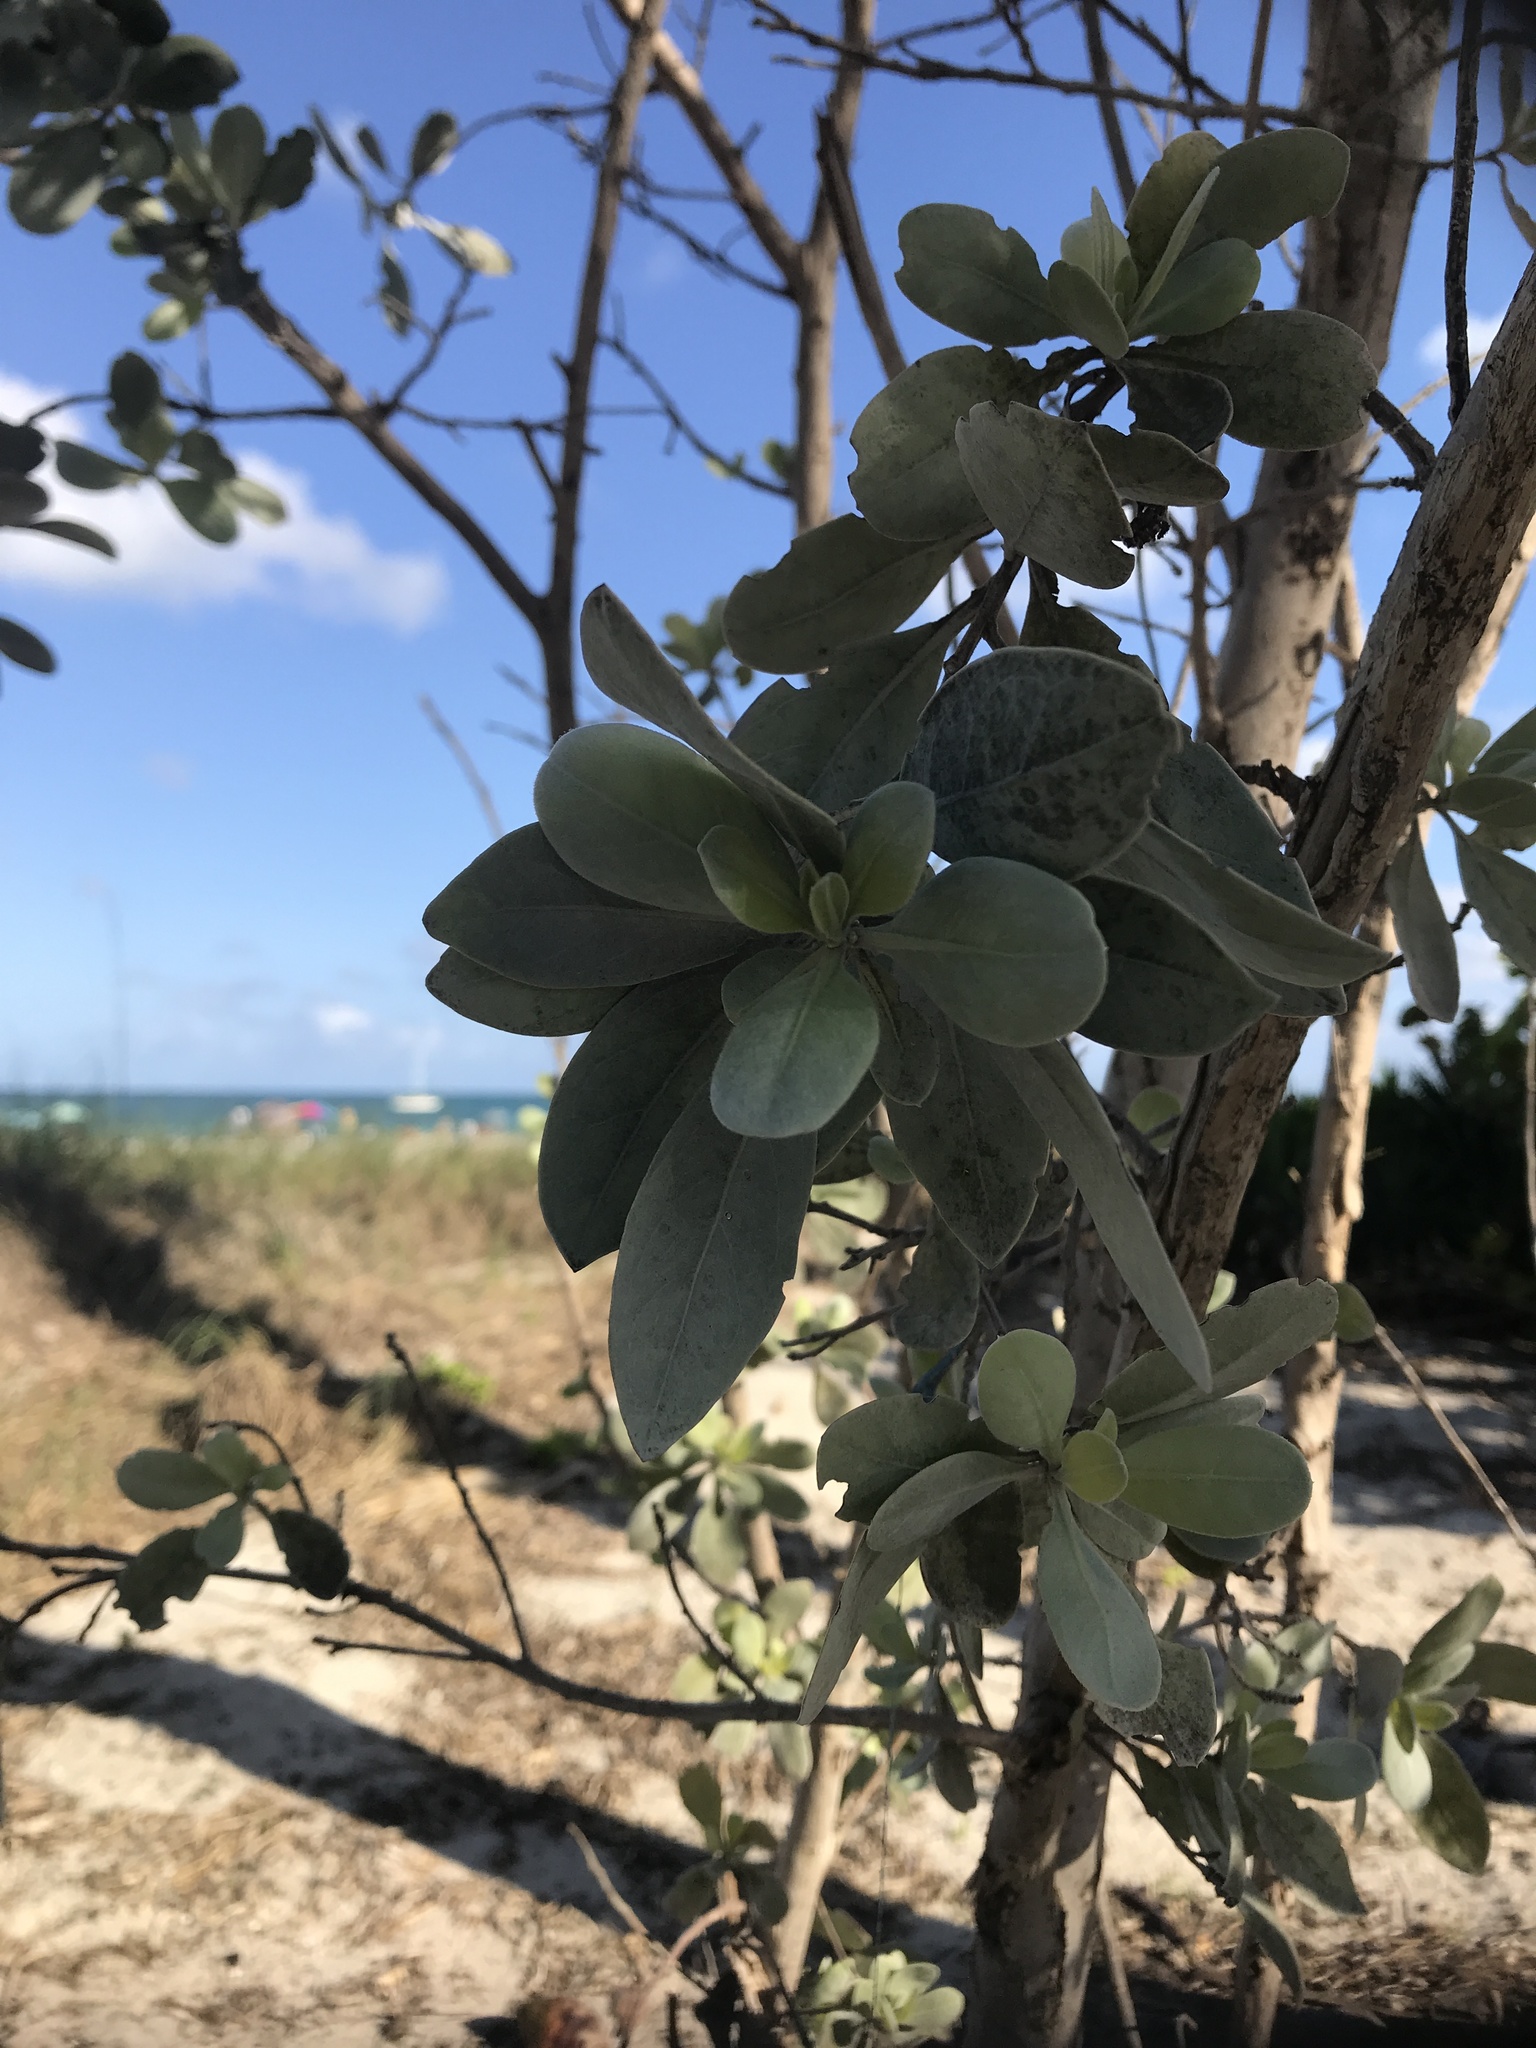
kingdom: Plantae
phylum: Tracheophyta
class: Magnoliopsida
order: Myrtales
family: Combretaceae
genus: Conocarpus
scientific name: Conocarpus erectus
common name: Button mangrove
